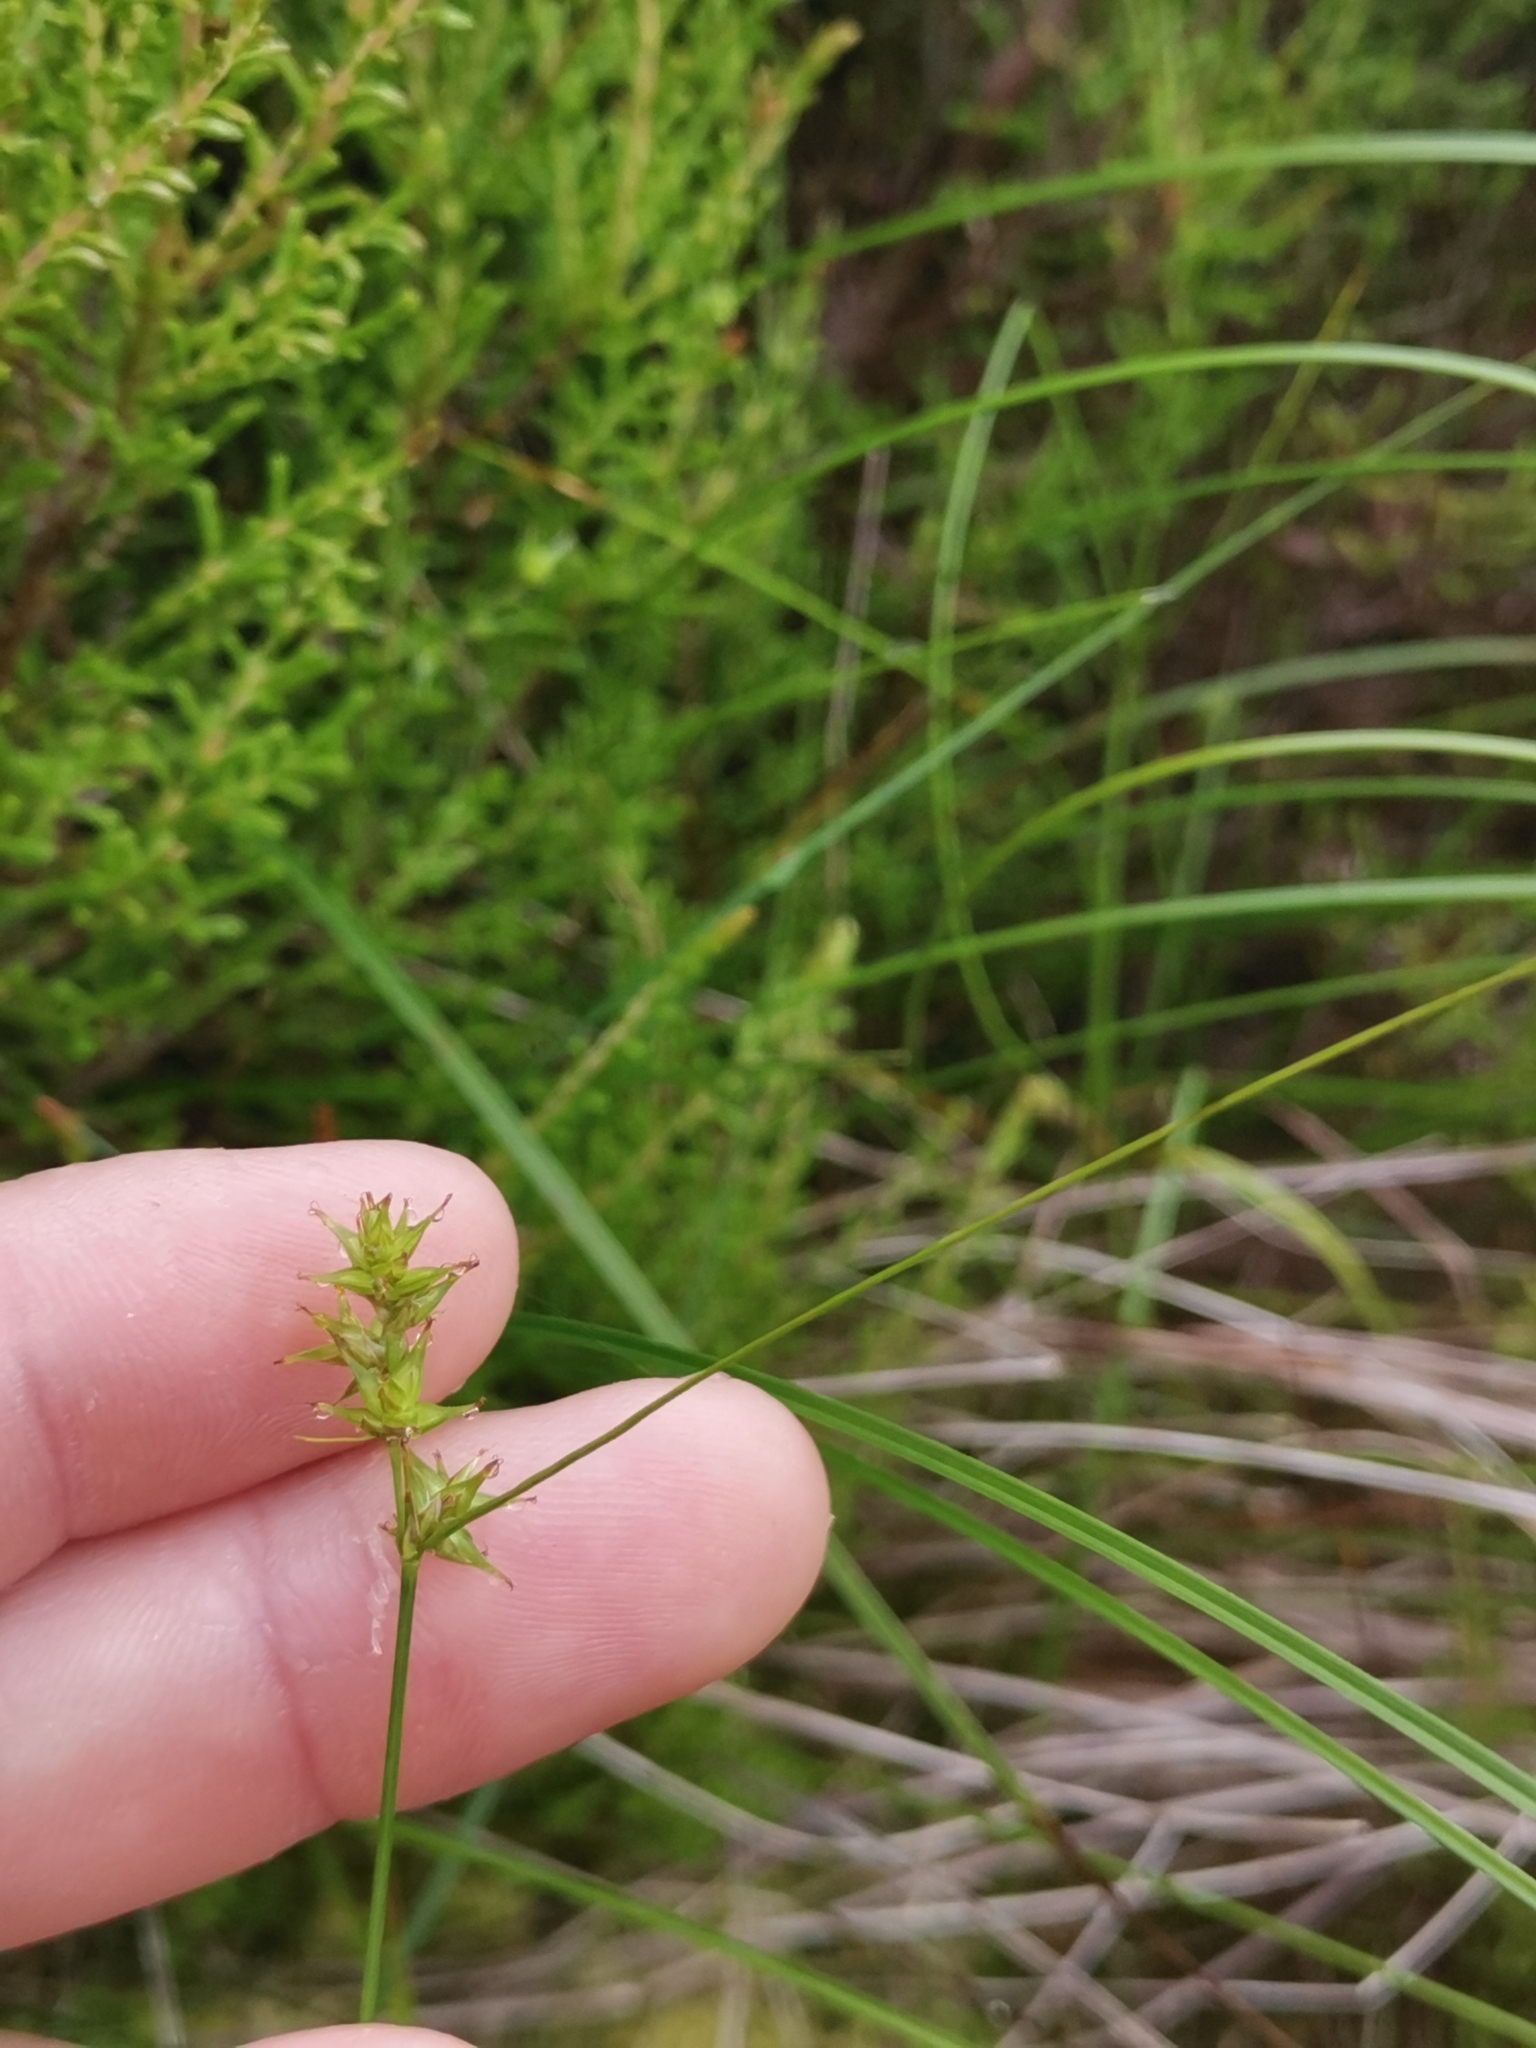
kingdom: Plantae
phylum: Tracheophyta
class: Liliopsida
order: Poales
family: Cyperaceae
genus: Carex
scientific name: Carex echinata
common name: Star sedge
